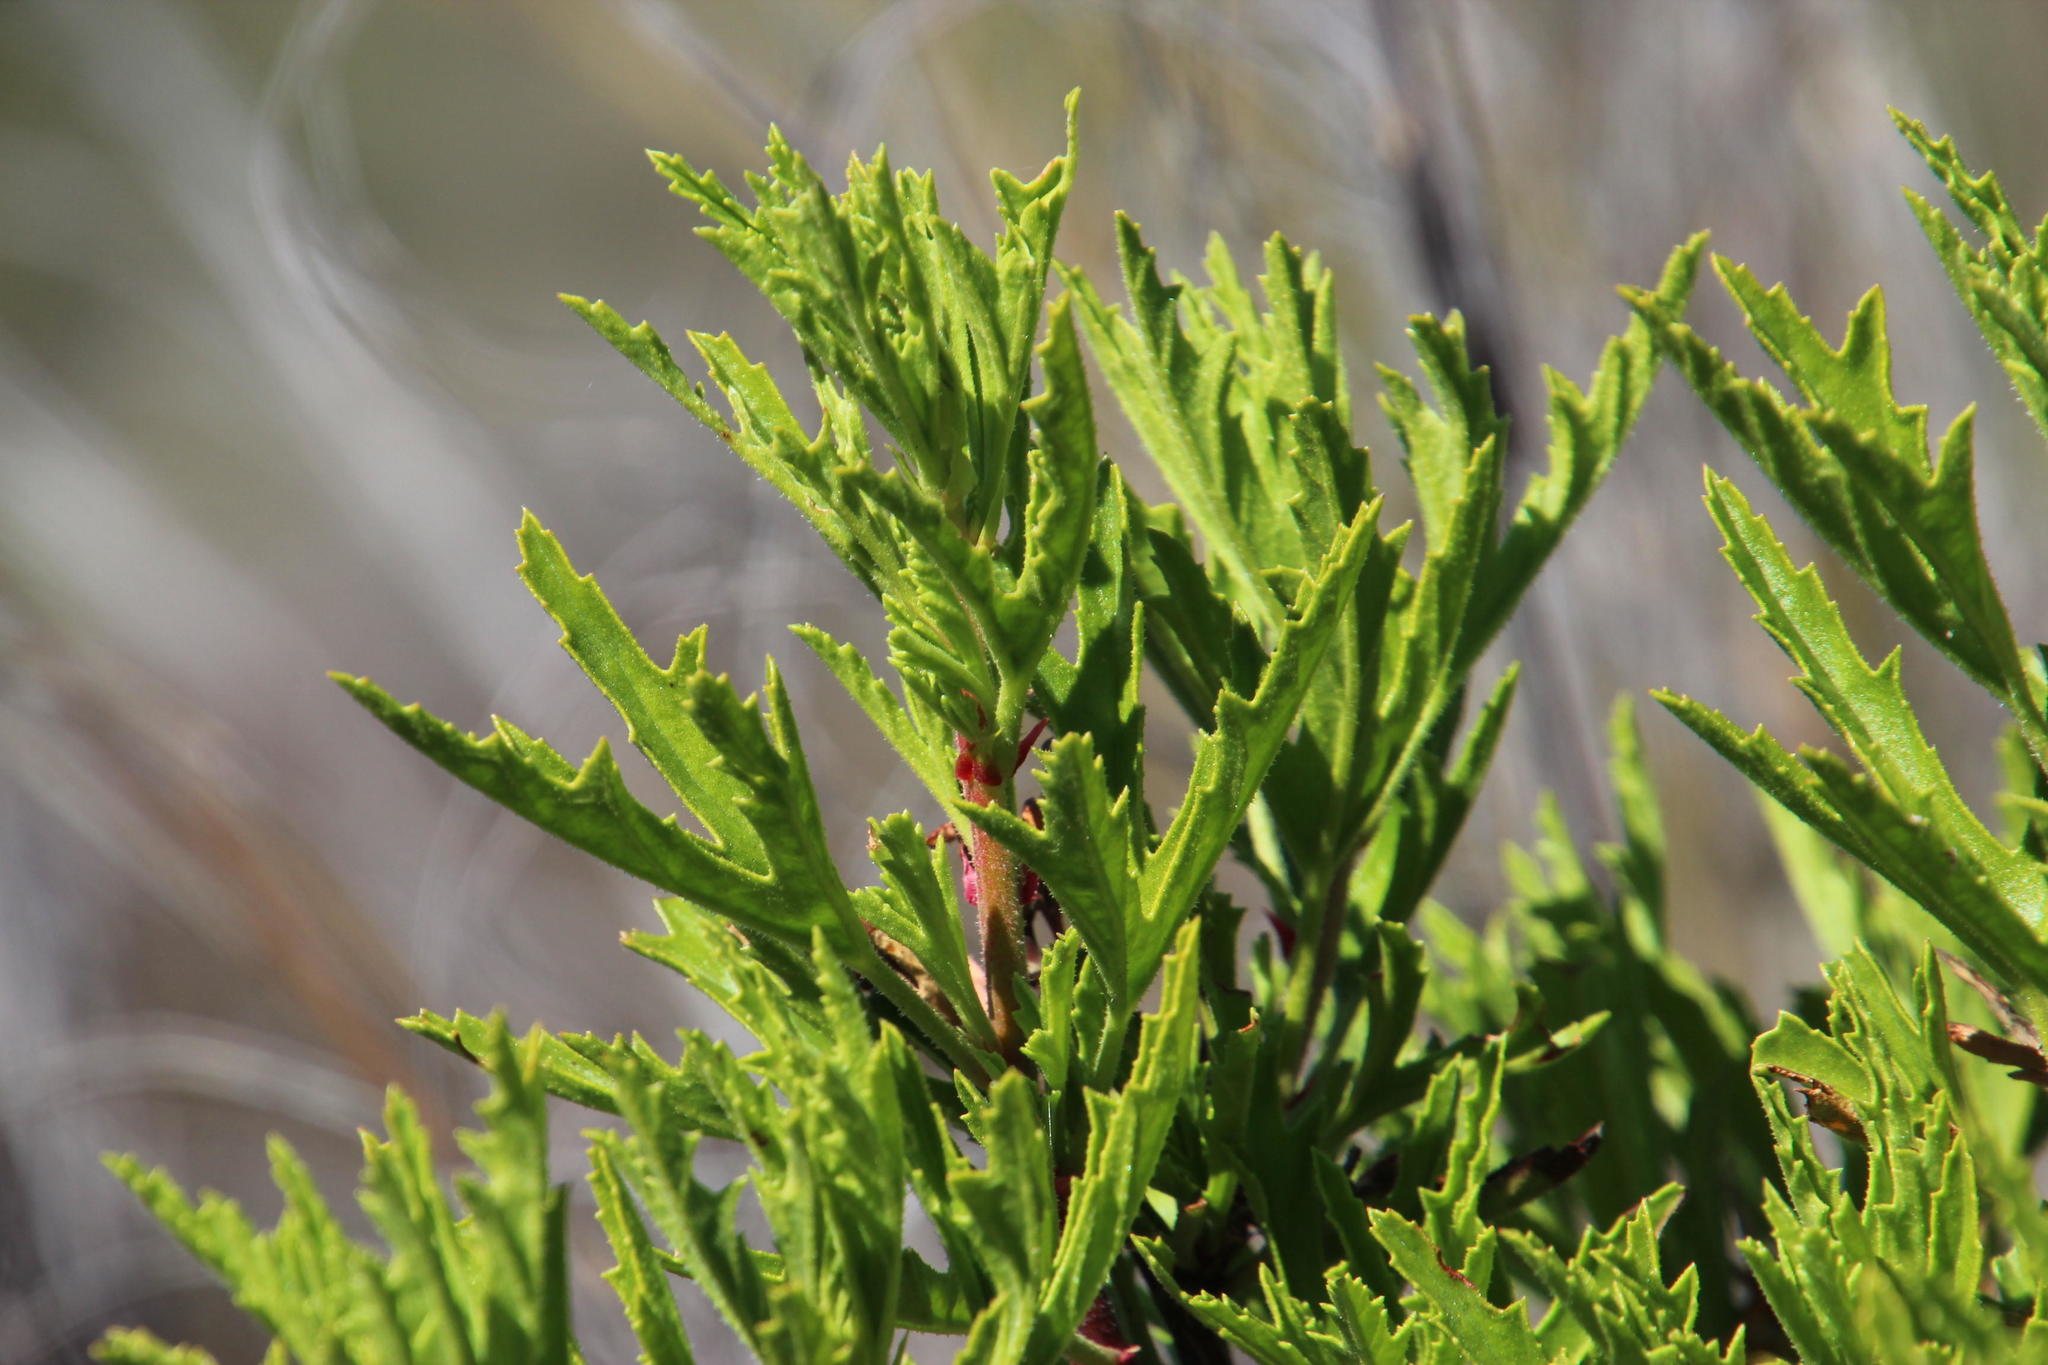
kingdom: Plantae
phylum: Tracheophyta
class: Magnoliopsida
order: Geraniales
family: Geraniaceae
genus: Pelargonium
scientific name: Pelargonium scabrum
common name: Apricot geranium
